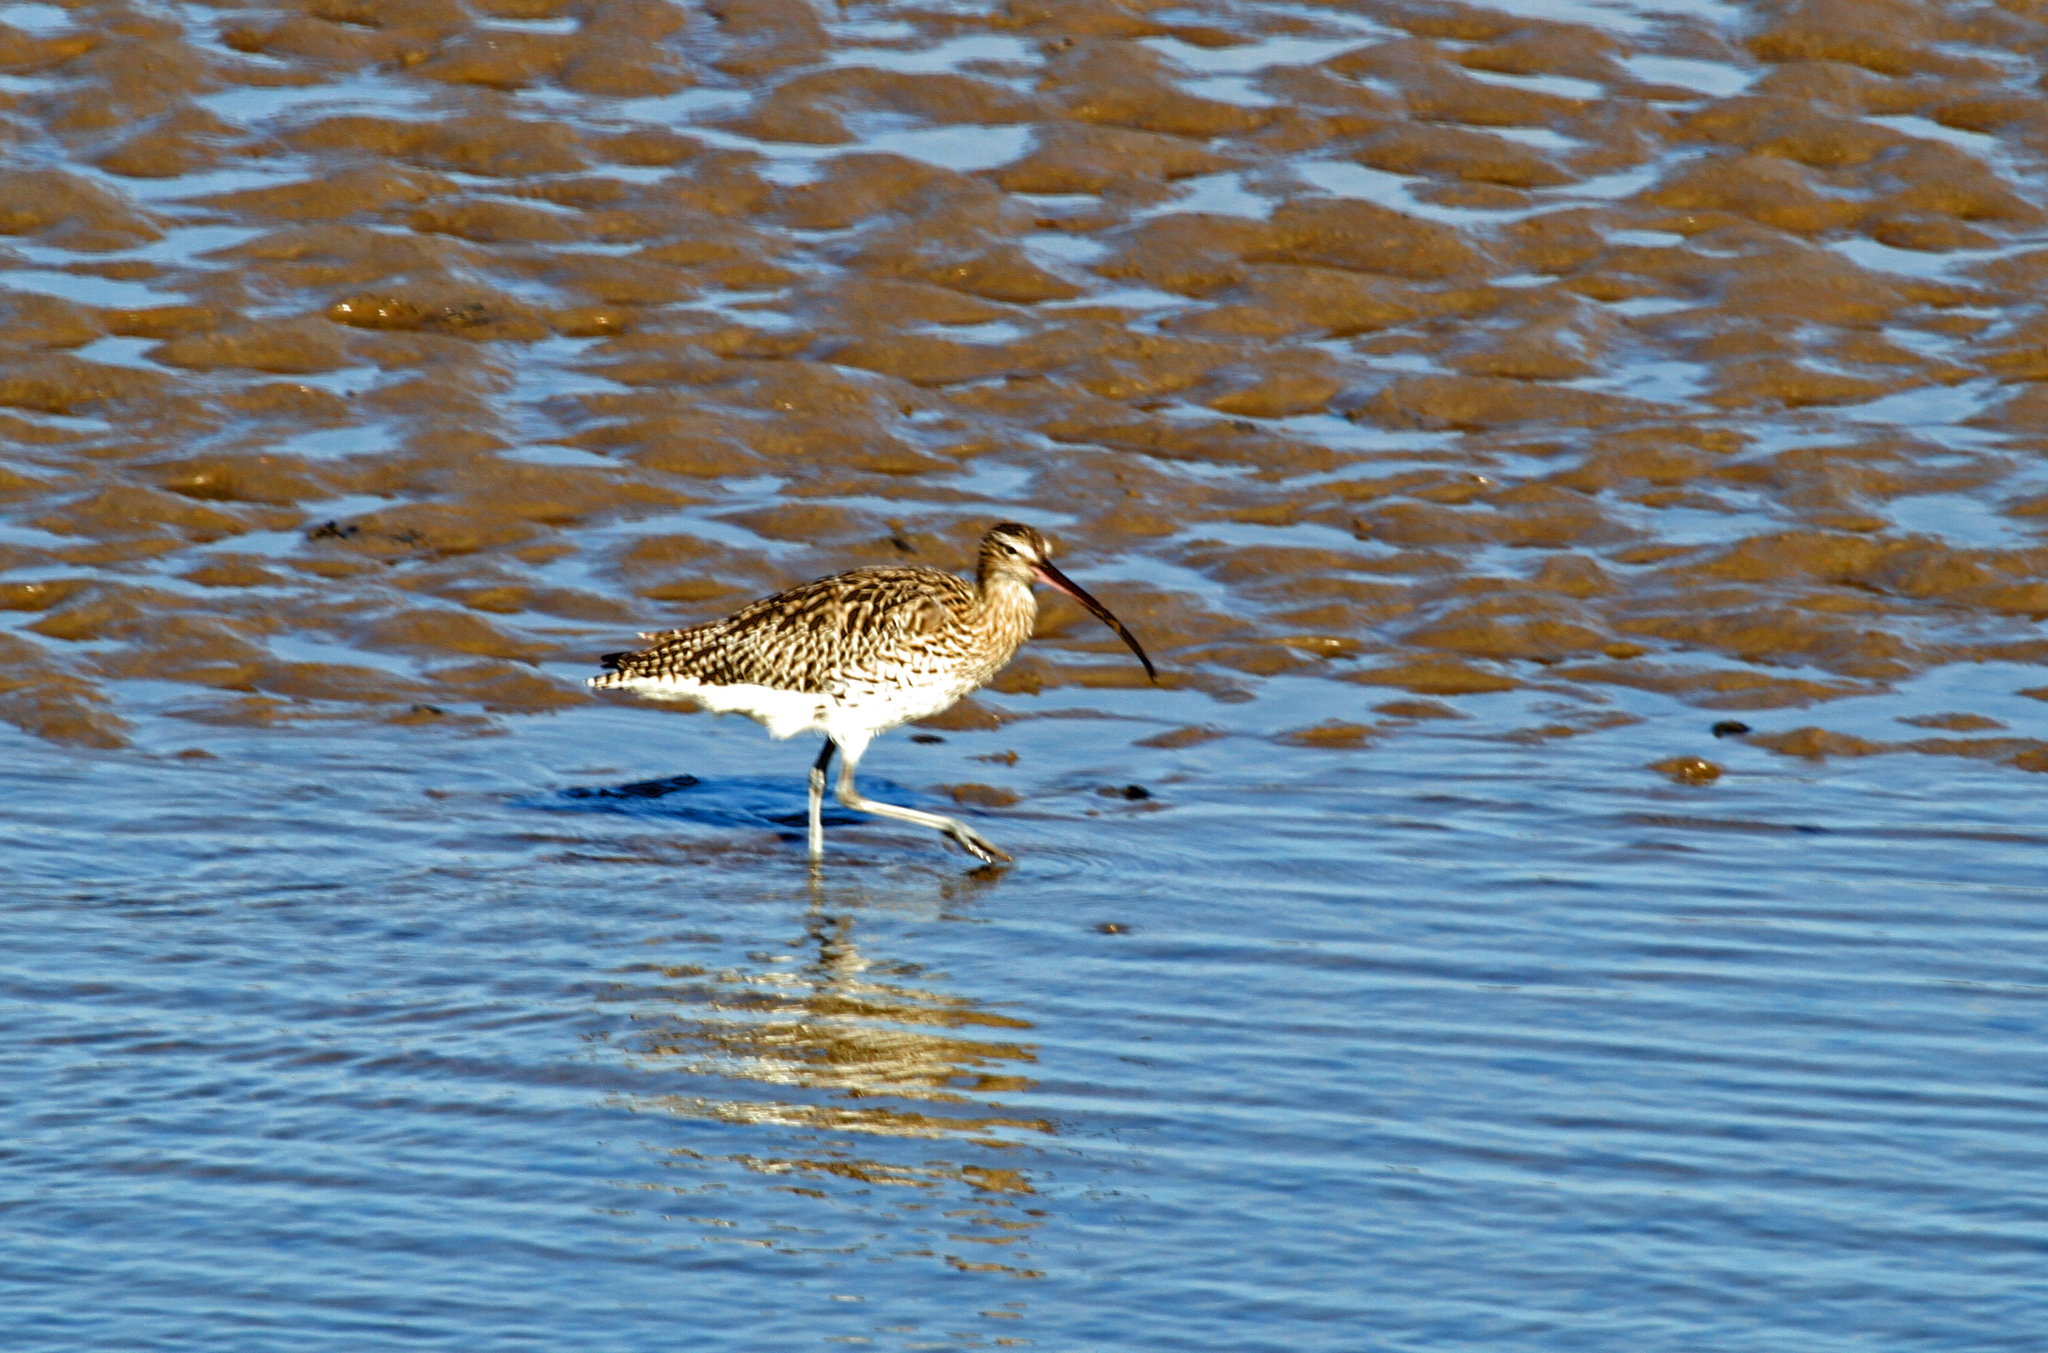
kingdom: Animalia
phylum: Chordata
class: Aves
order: Charadriiformes
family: Scolopacidae
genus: Numenius
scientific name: Numenius phaeopus
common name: Whimbrel
